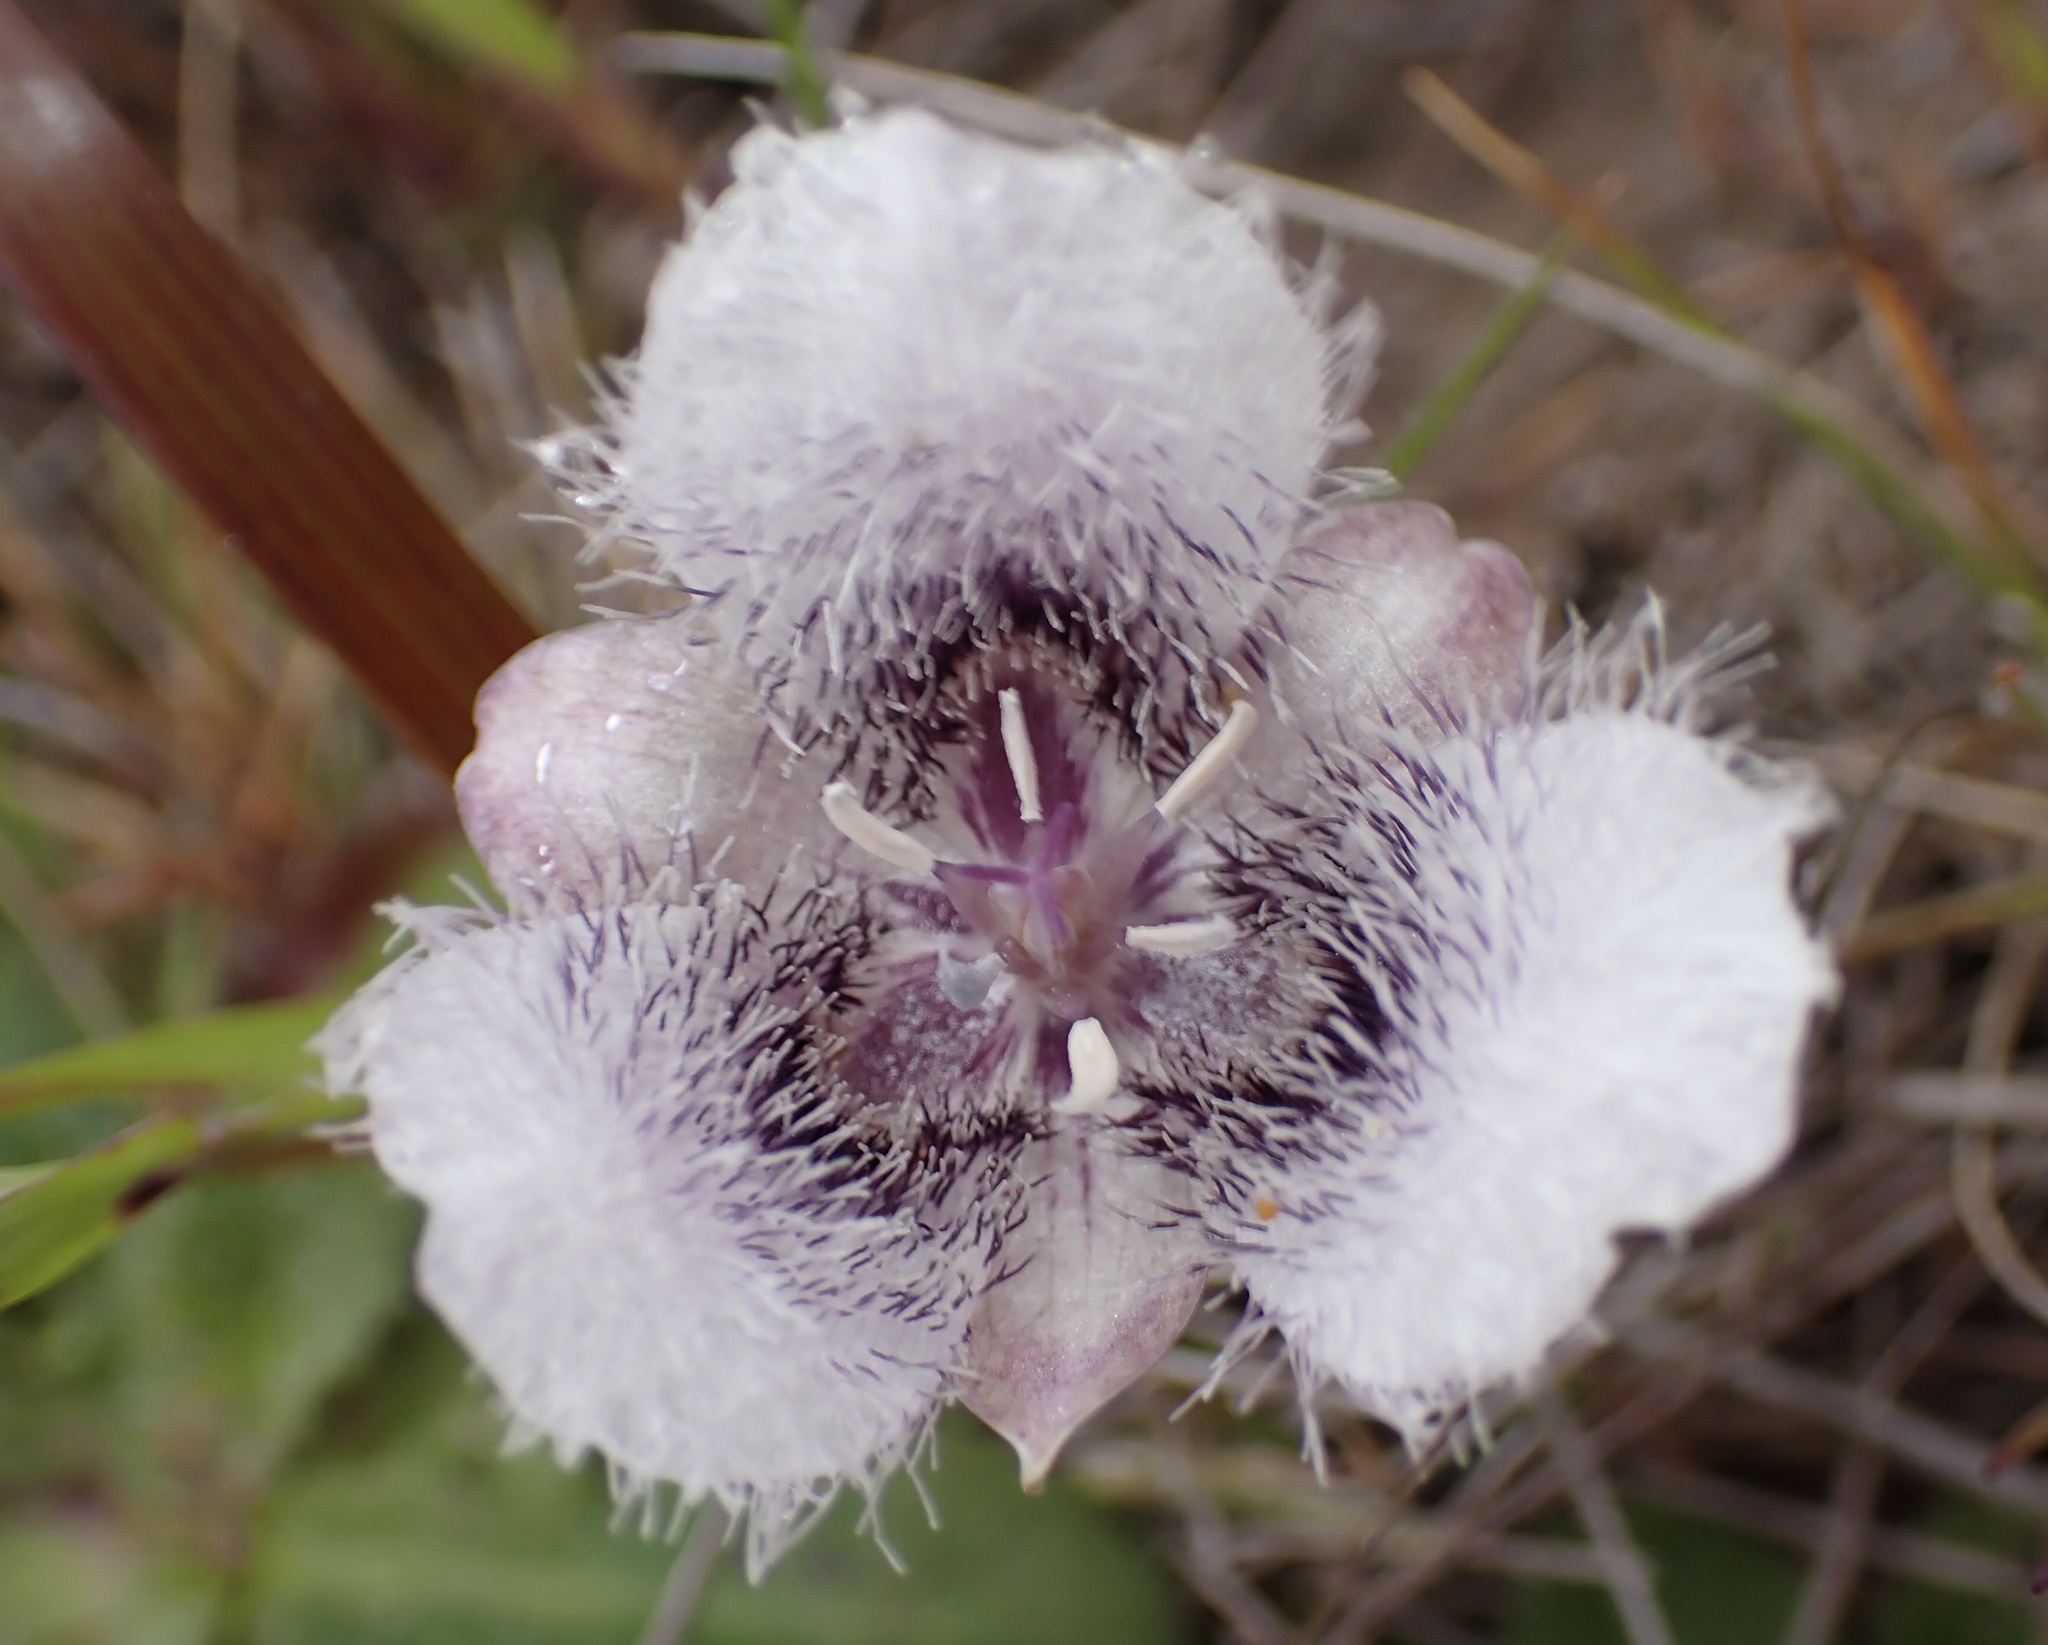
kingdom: Plantae
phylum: Tracheophyta
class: Liliopsida
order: Liliales
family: Liliaceae
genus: Calochortus
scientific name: Calochortus tolmiei
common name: Pussy-ears
